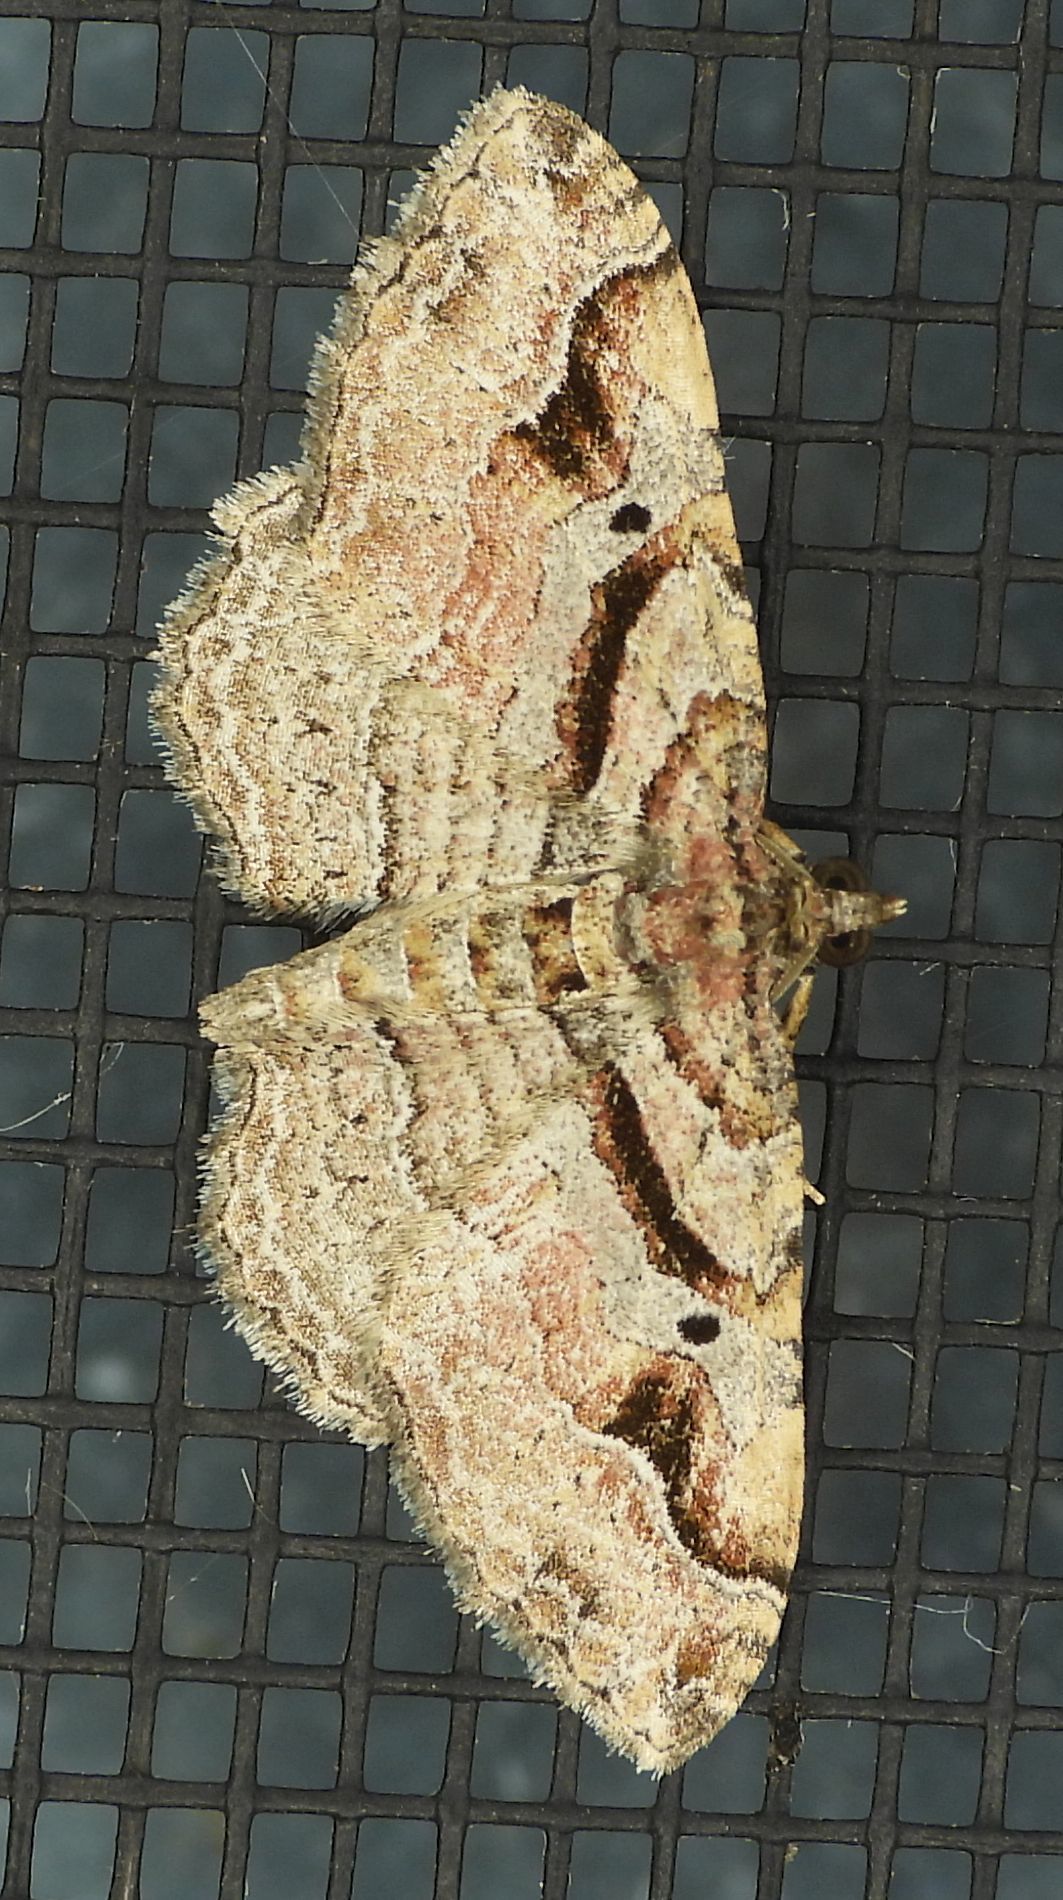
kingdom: Animalia
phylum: Arthropoda
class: Insecta
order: Lepidoptera
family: Geometridae
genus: Costaconvexa
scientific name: Costaconvexa centrostrigaria
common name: Bent-line carpet
